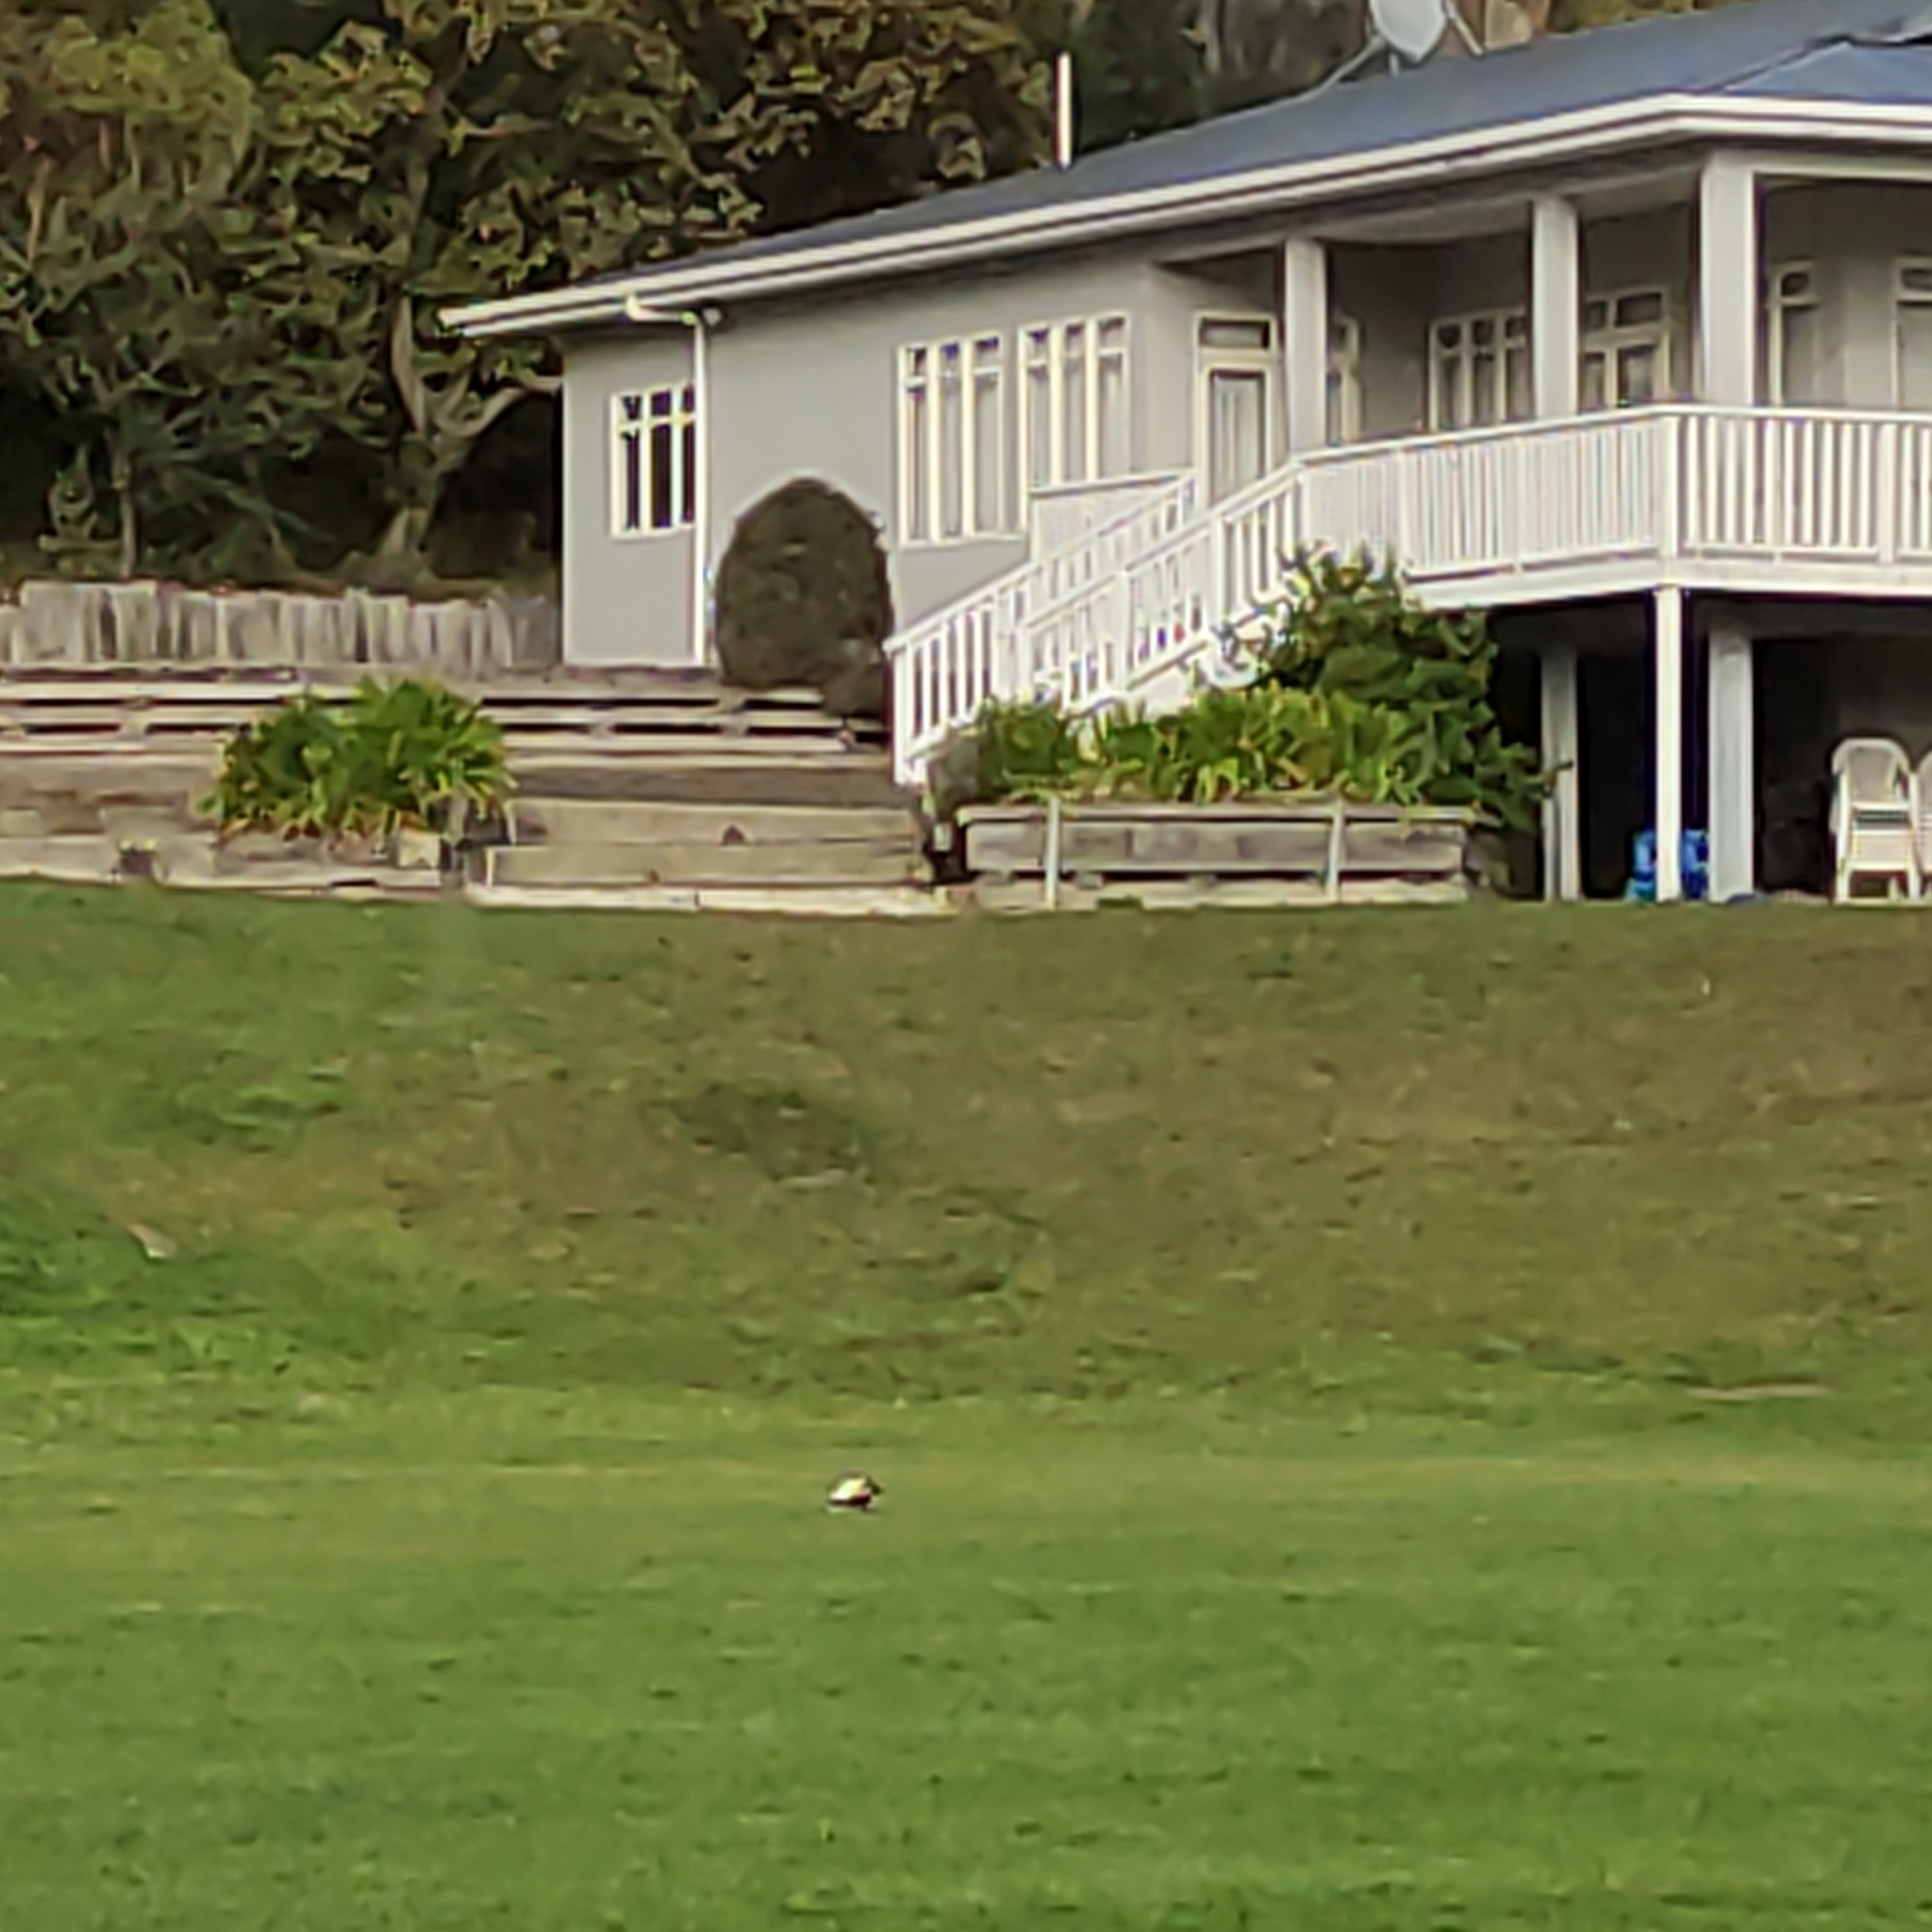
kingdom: Animalia
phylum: Chordata
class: Aves
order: Passeriformes
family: Cracticidae
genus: Gymnorhina
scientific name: Gymnorhina tibicen
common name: Australian magpie
